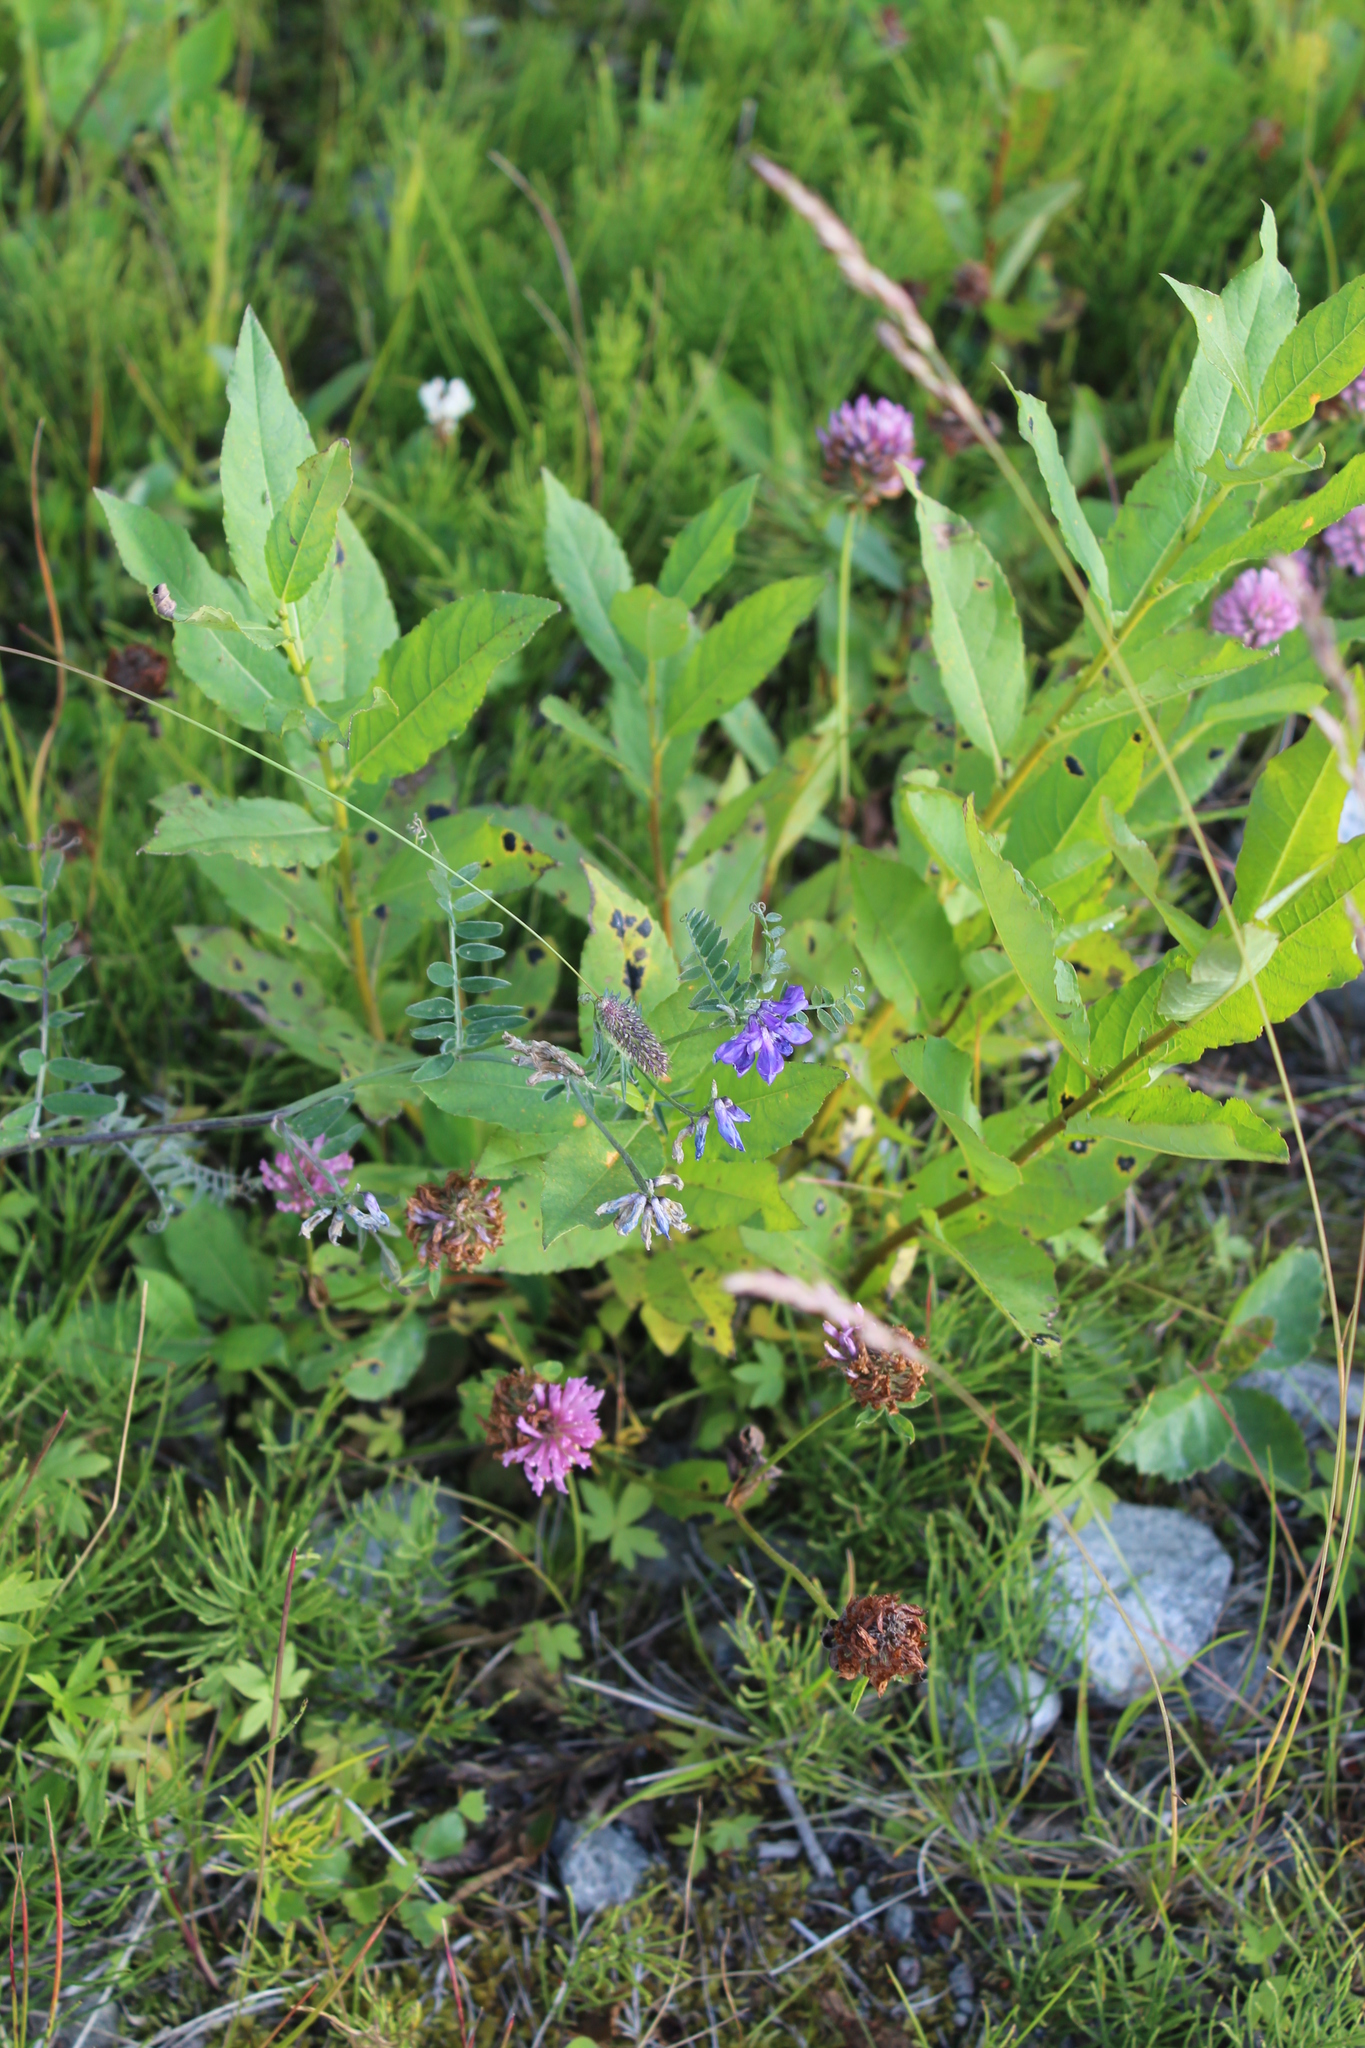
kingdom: Plantae
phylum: Tracheophyta
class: Magnoliopsida
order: Fabales
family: Fabaceae
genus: Vicia
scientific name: Vicia cracca
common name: Bird vetch
